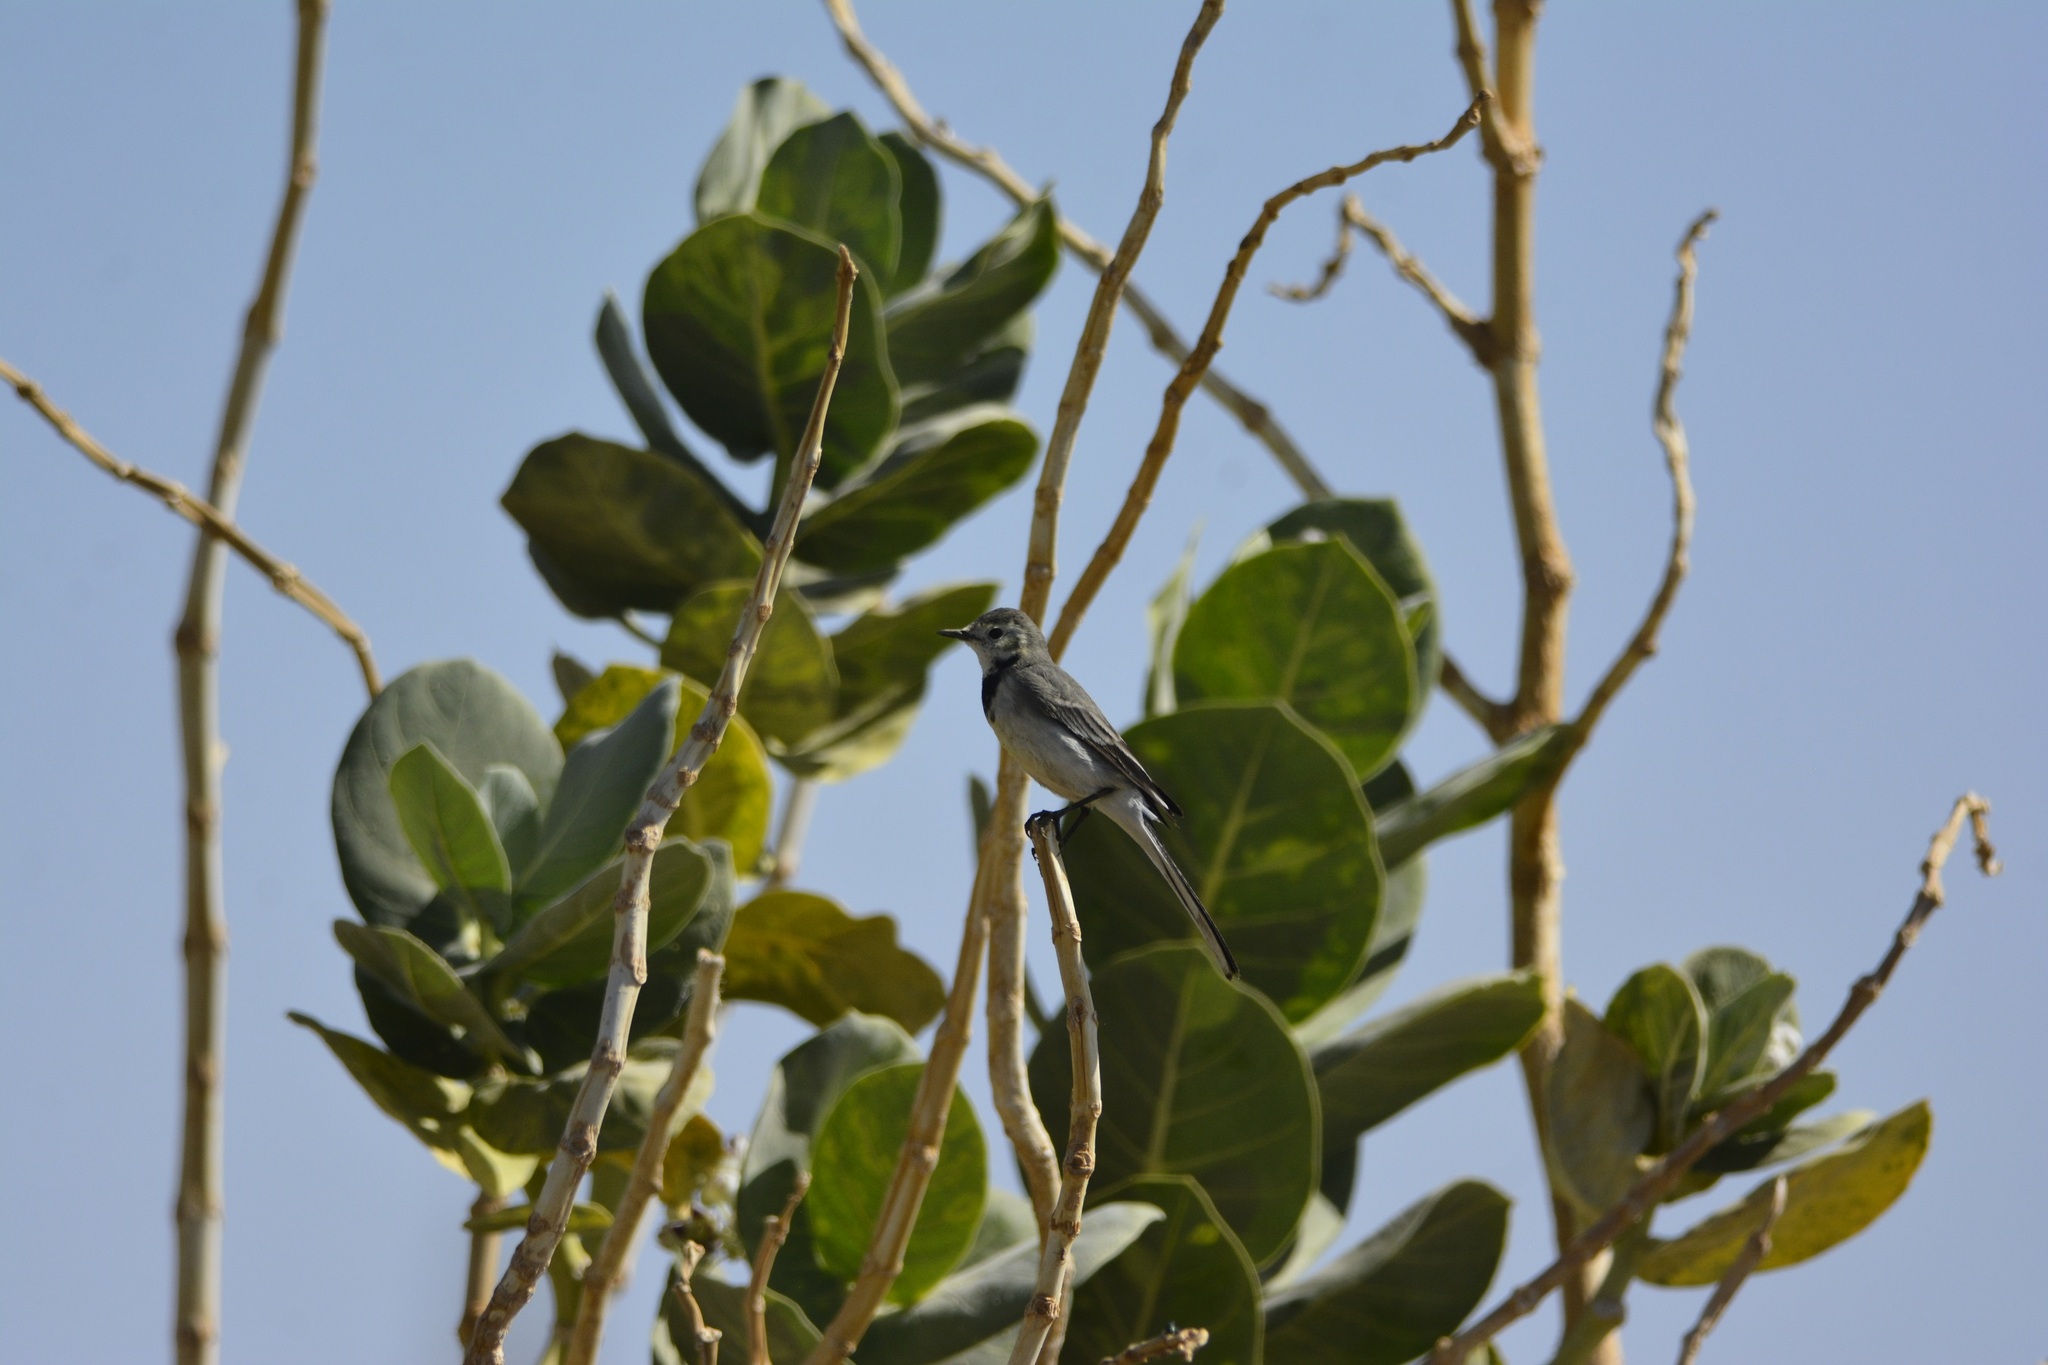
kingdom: Animalia
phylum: Chordata
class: Aves
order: Passeriformes
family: Motacillidae
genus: Motacilla
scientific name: Motacilla alba
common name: White wagtail
